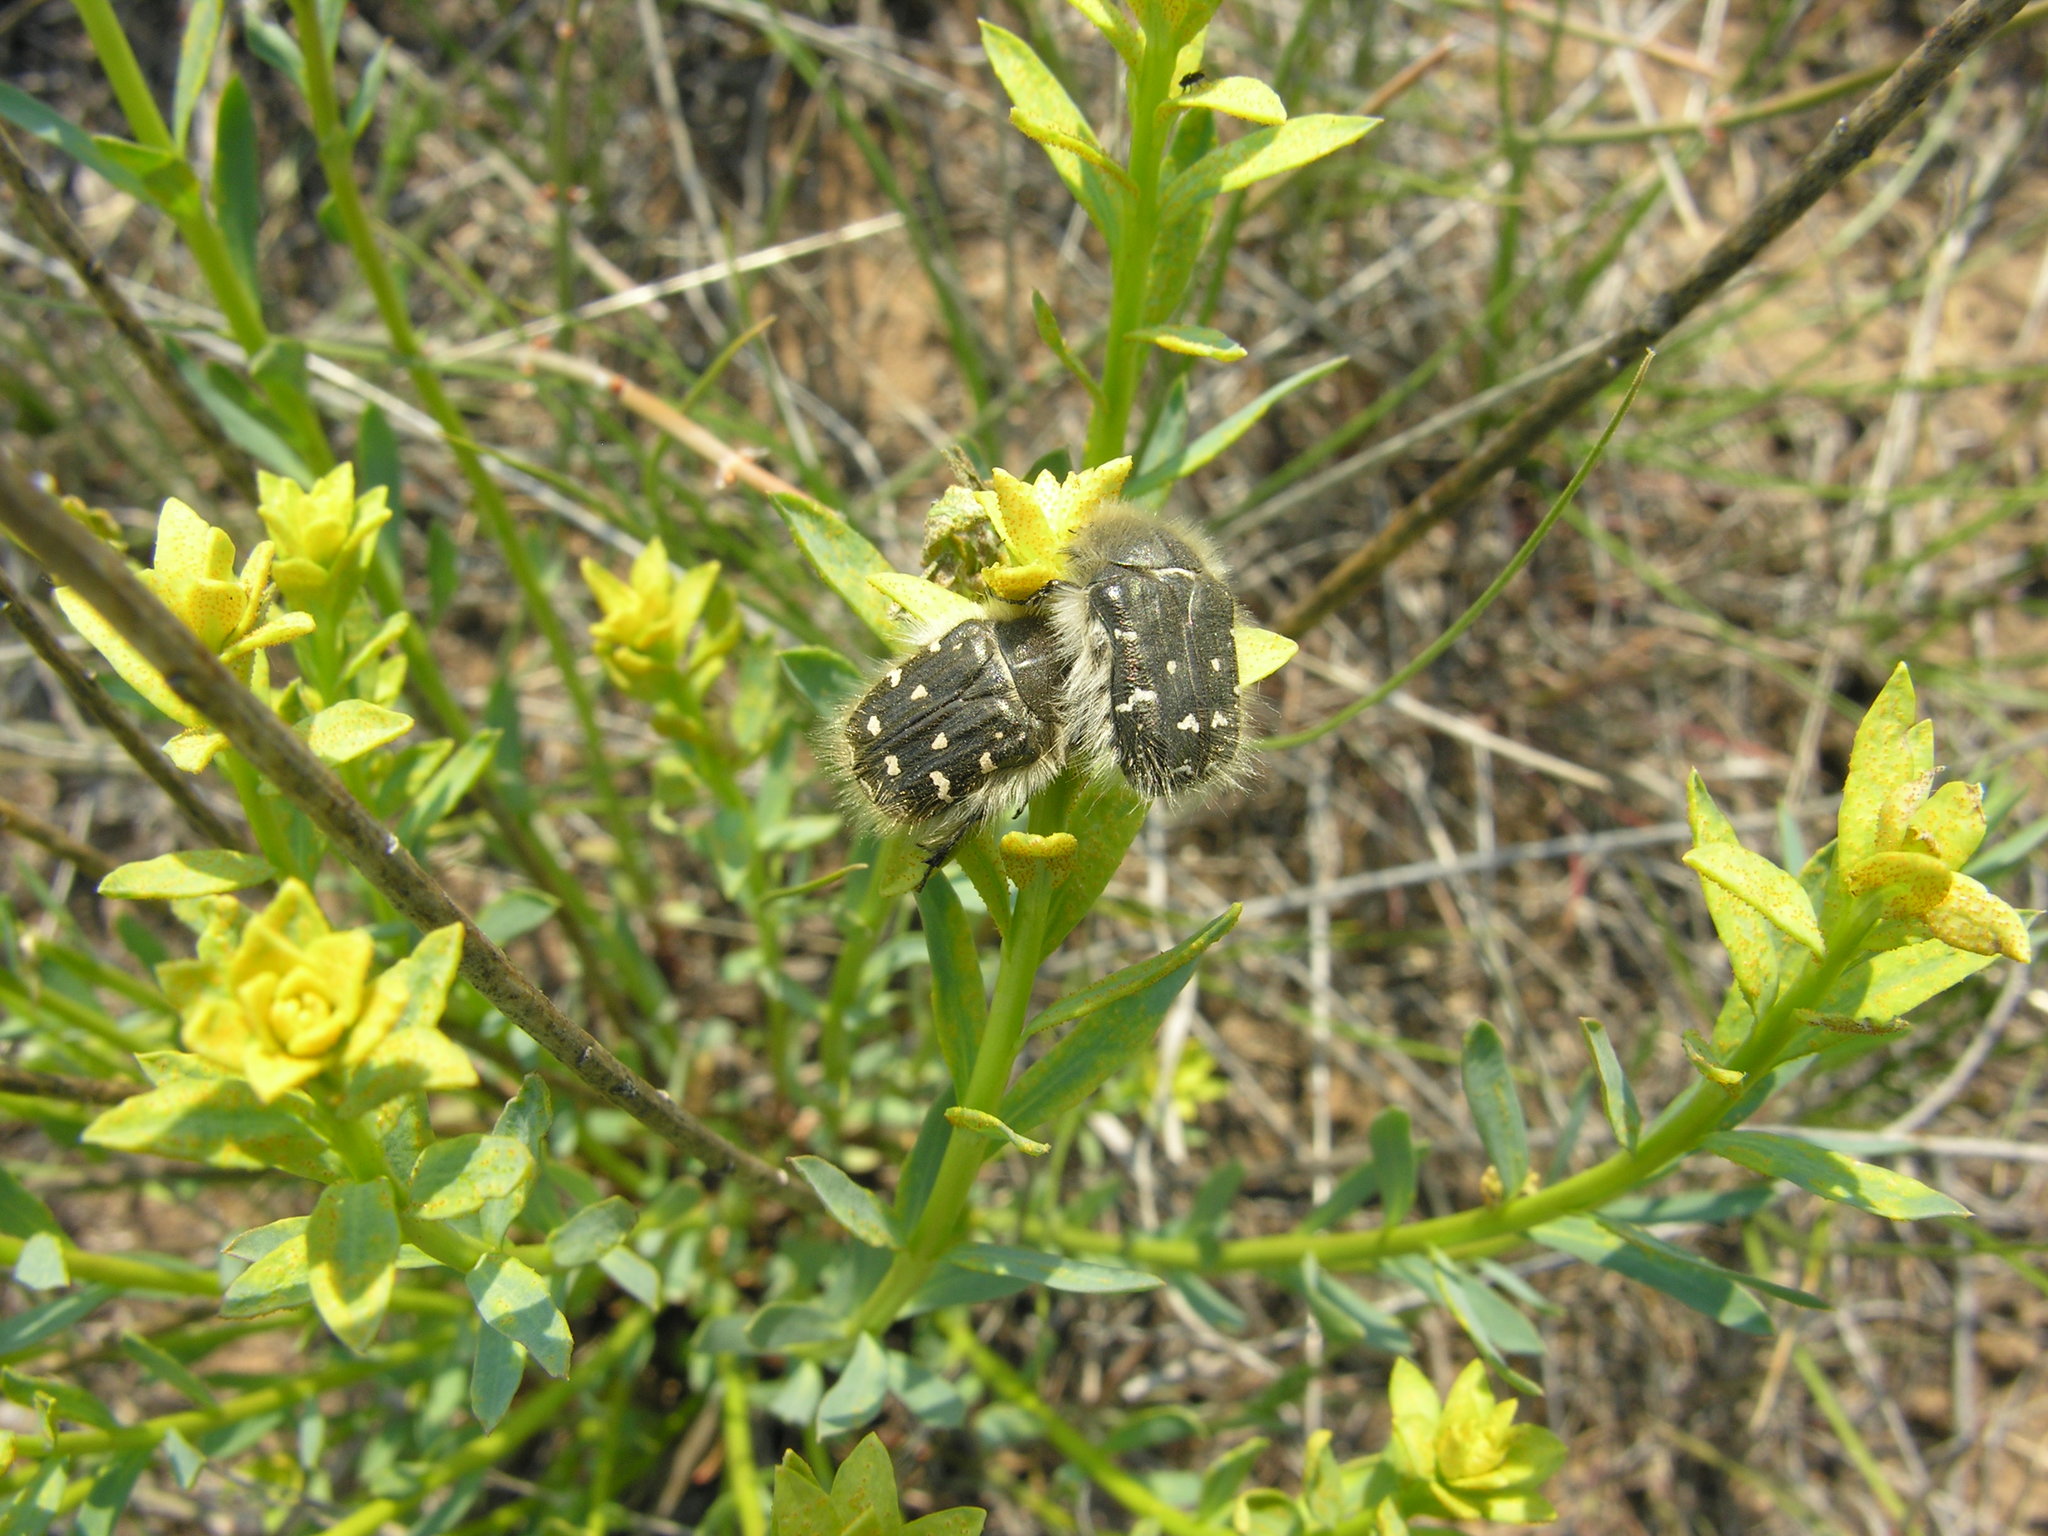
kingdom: Animalia
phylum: Arthropoda
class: Insecta
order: Coleoptera
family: Scarabaeidae
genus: Tropinota
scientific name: Tropinota hirta
